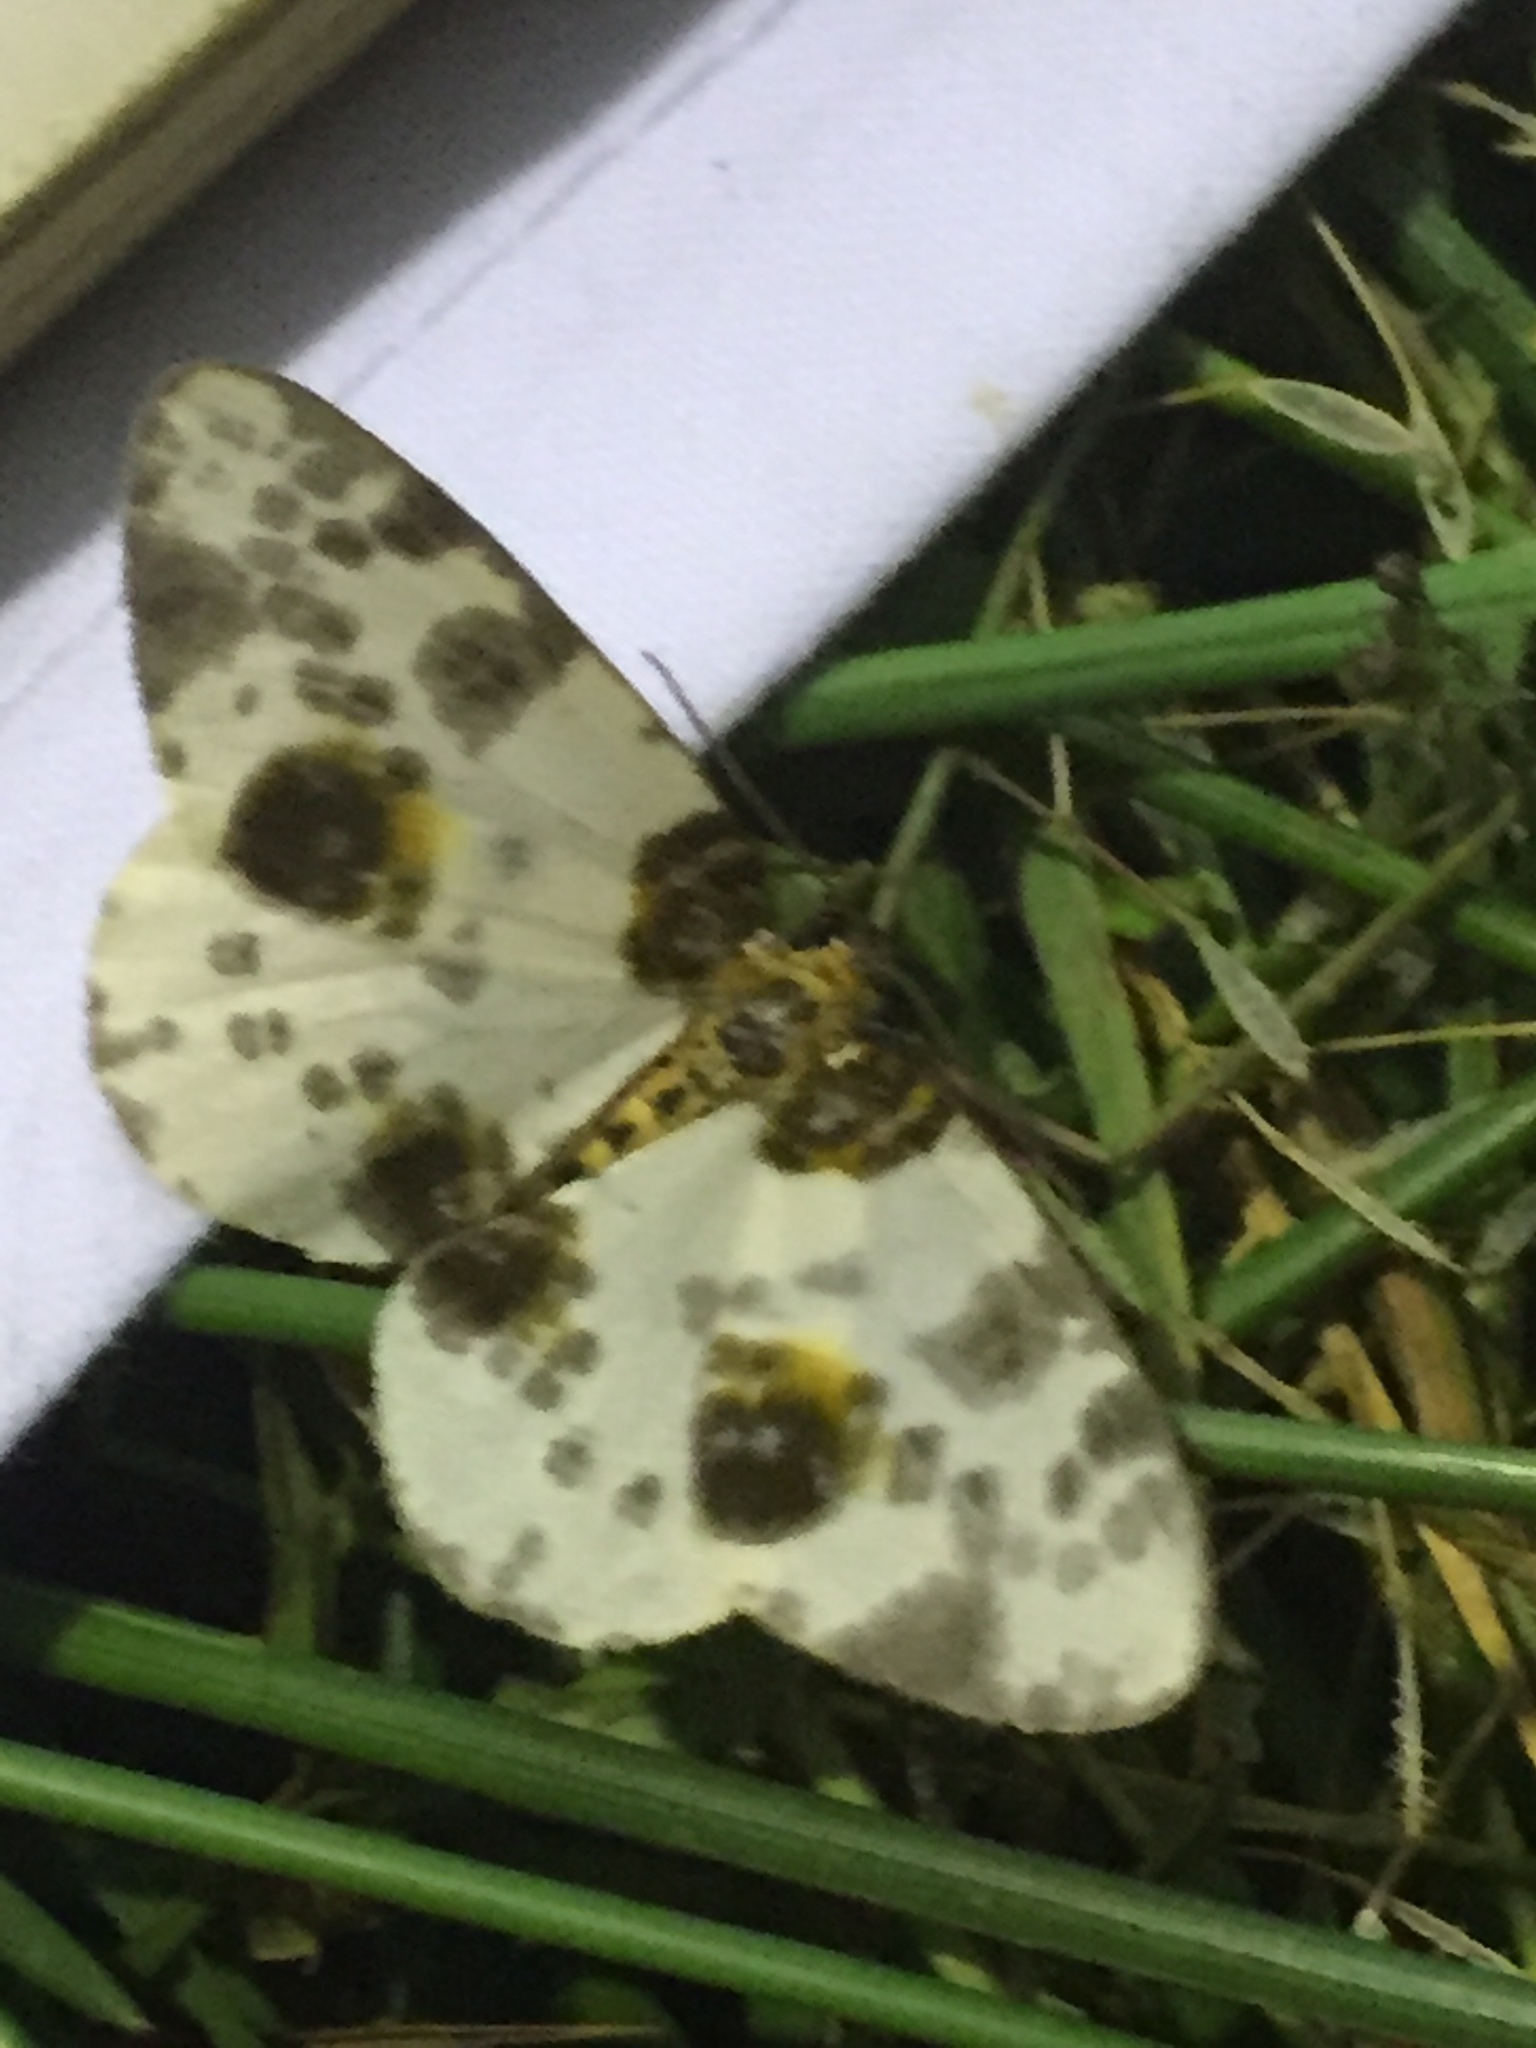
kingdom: Animalia
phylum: Arthropoda
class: Insecta
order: Lepidoptera
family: Geometridae
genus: Abraxas
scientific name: Abraxas sylvata
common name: Clouded magpie
